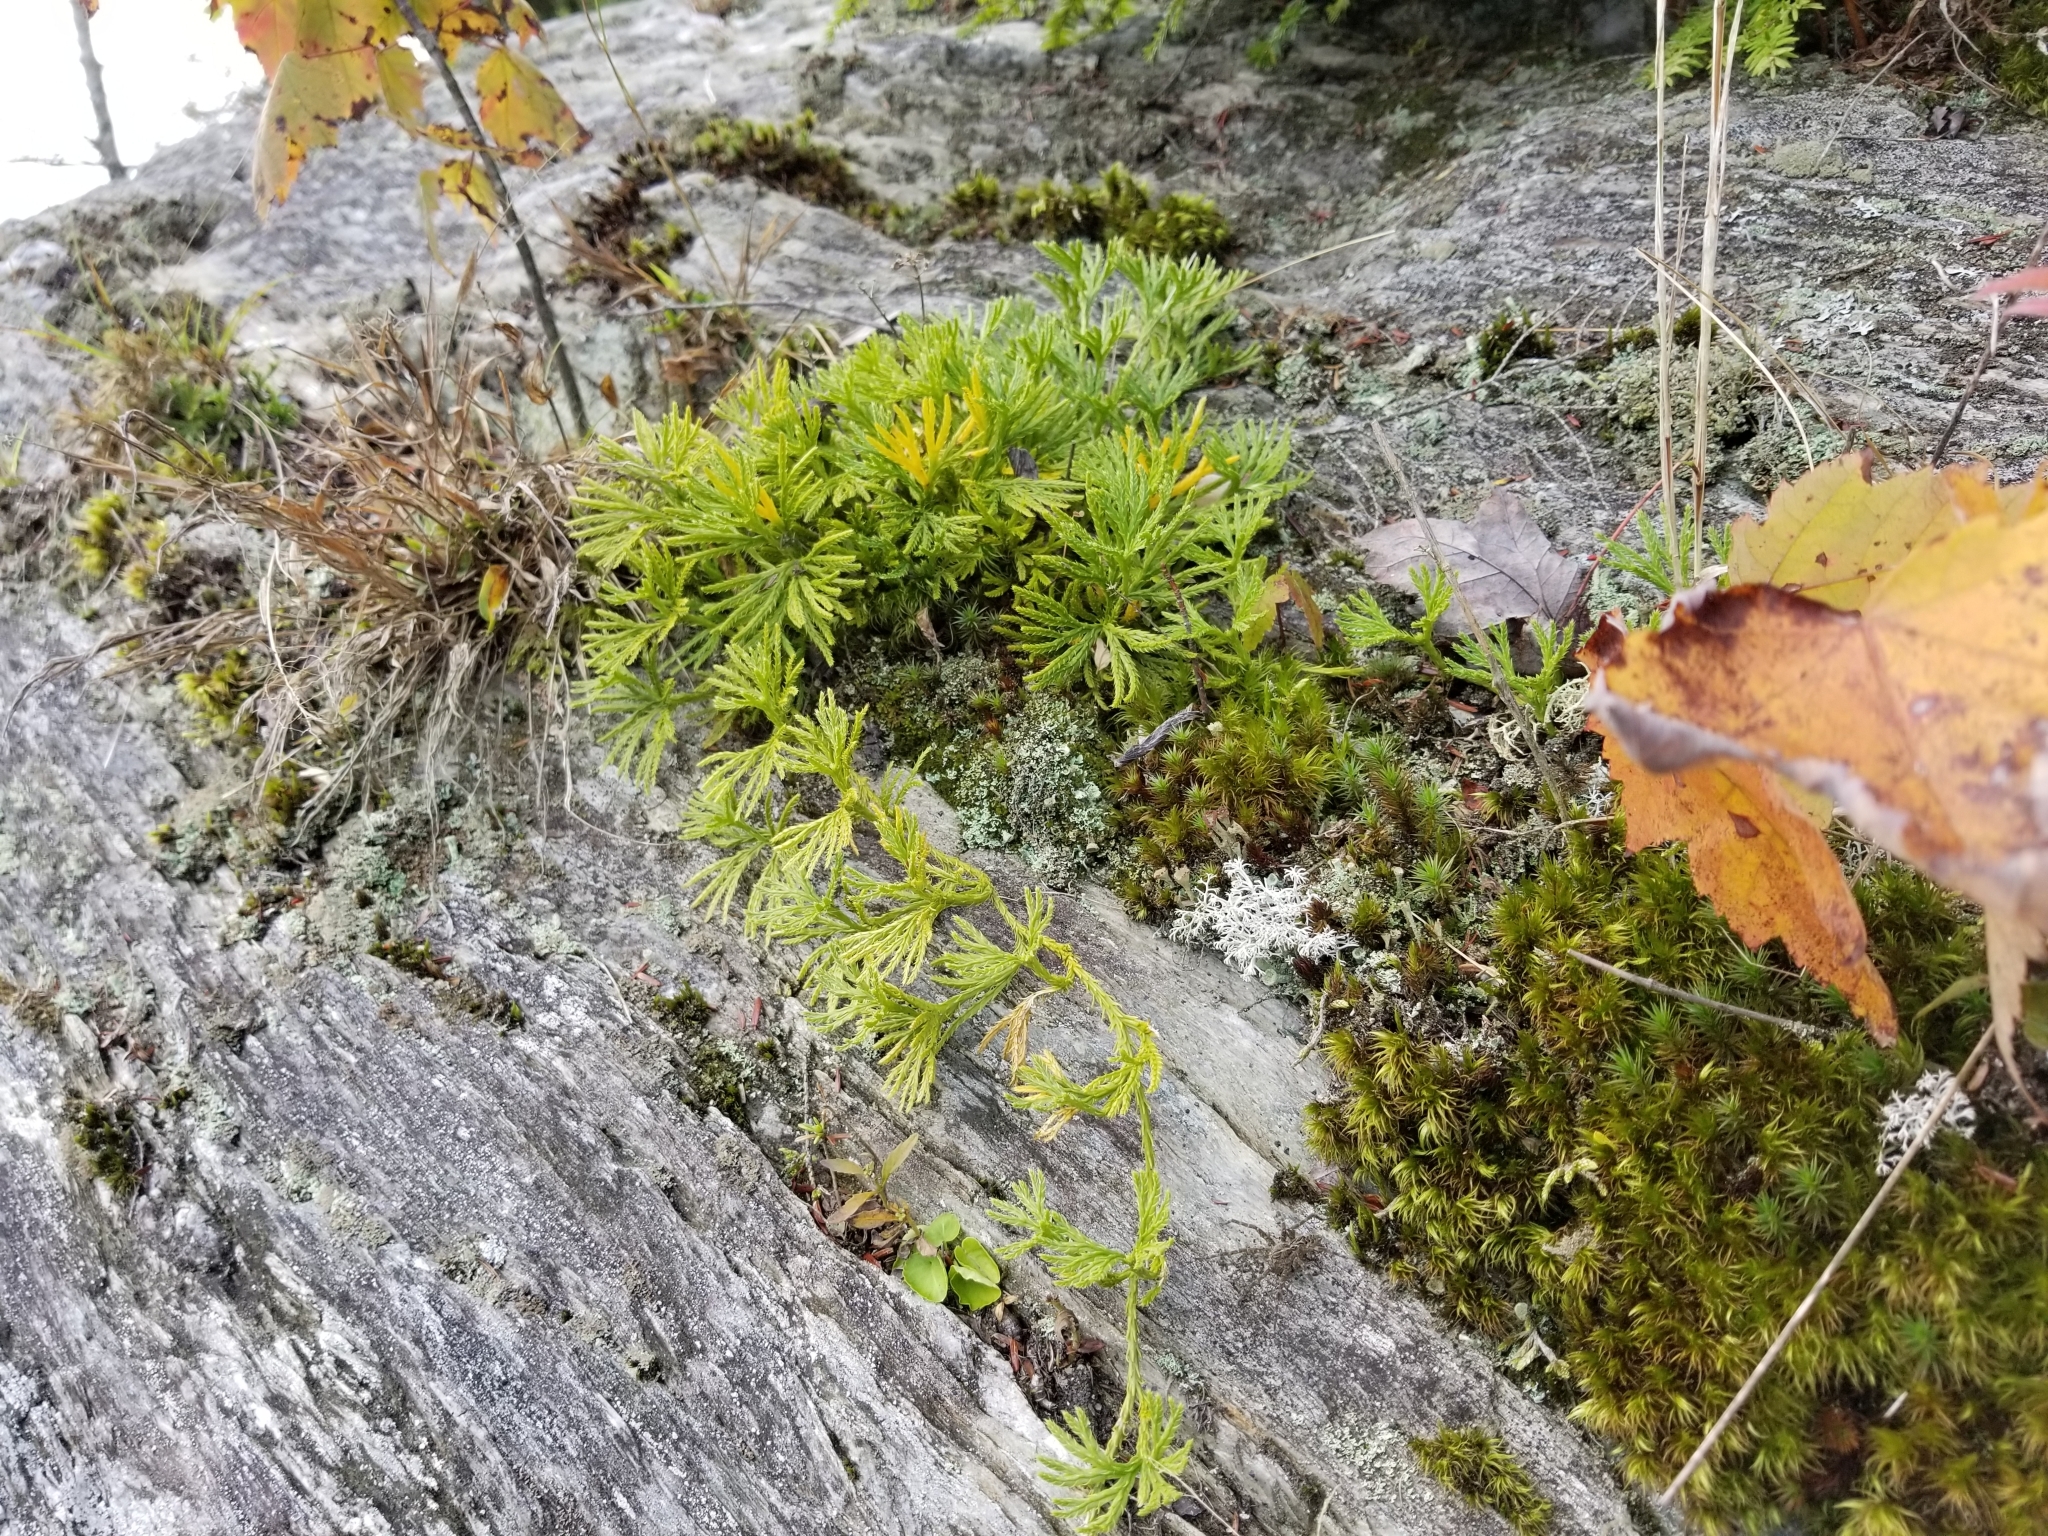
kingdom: Plantae
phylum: Tracheophyta
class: Lycopodiopsida
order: Lycopodiales
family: Lycopodiaceae
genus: Diphasiastrum
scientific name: Diphasiastrum digitatum
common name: Southern running-pine
